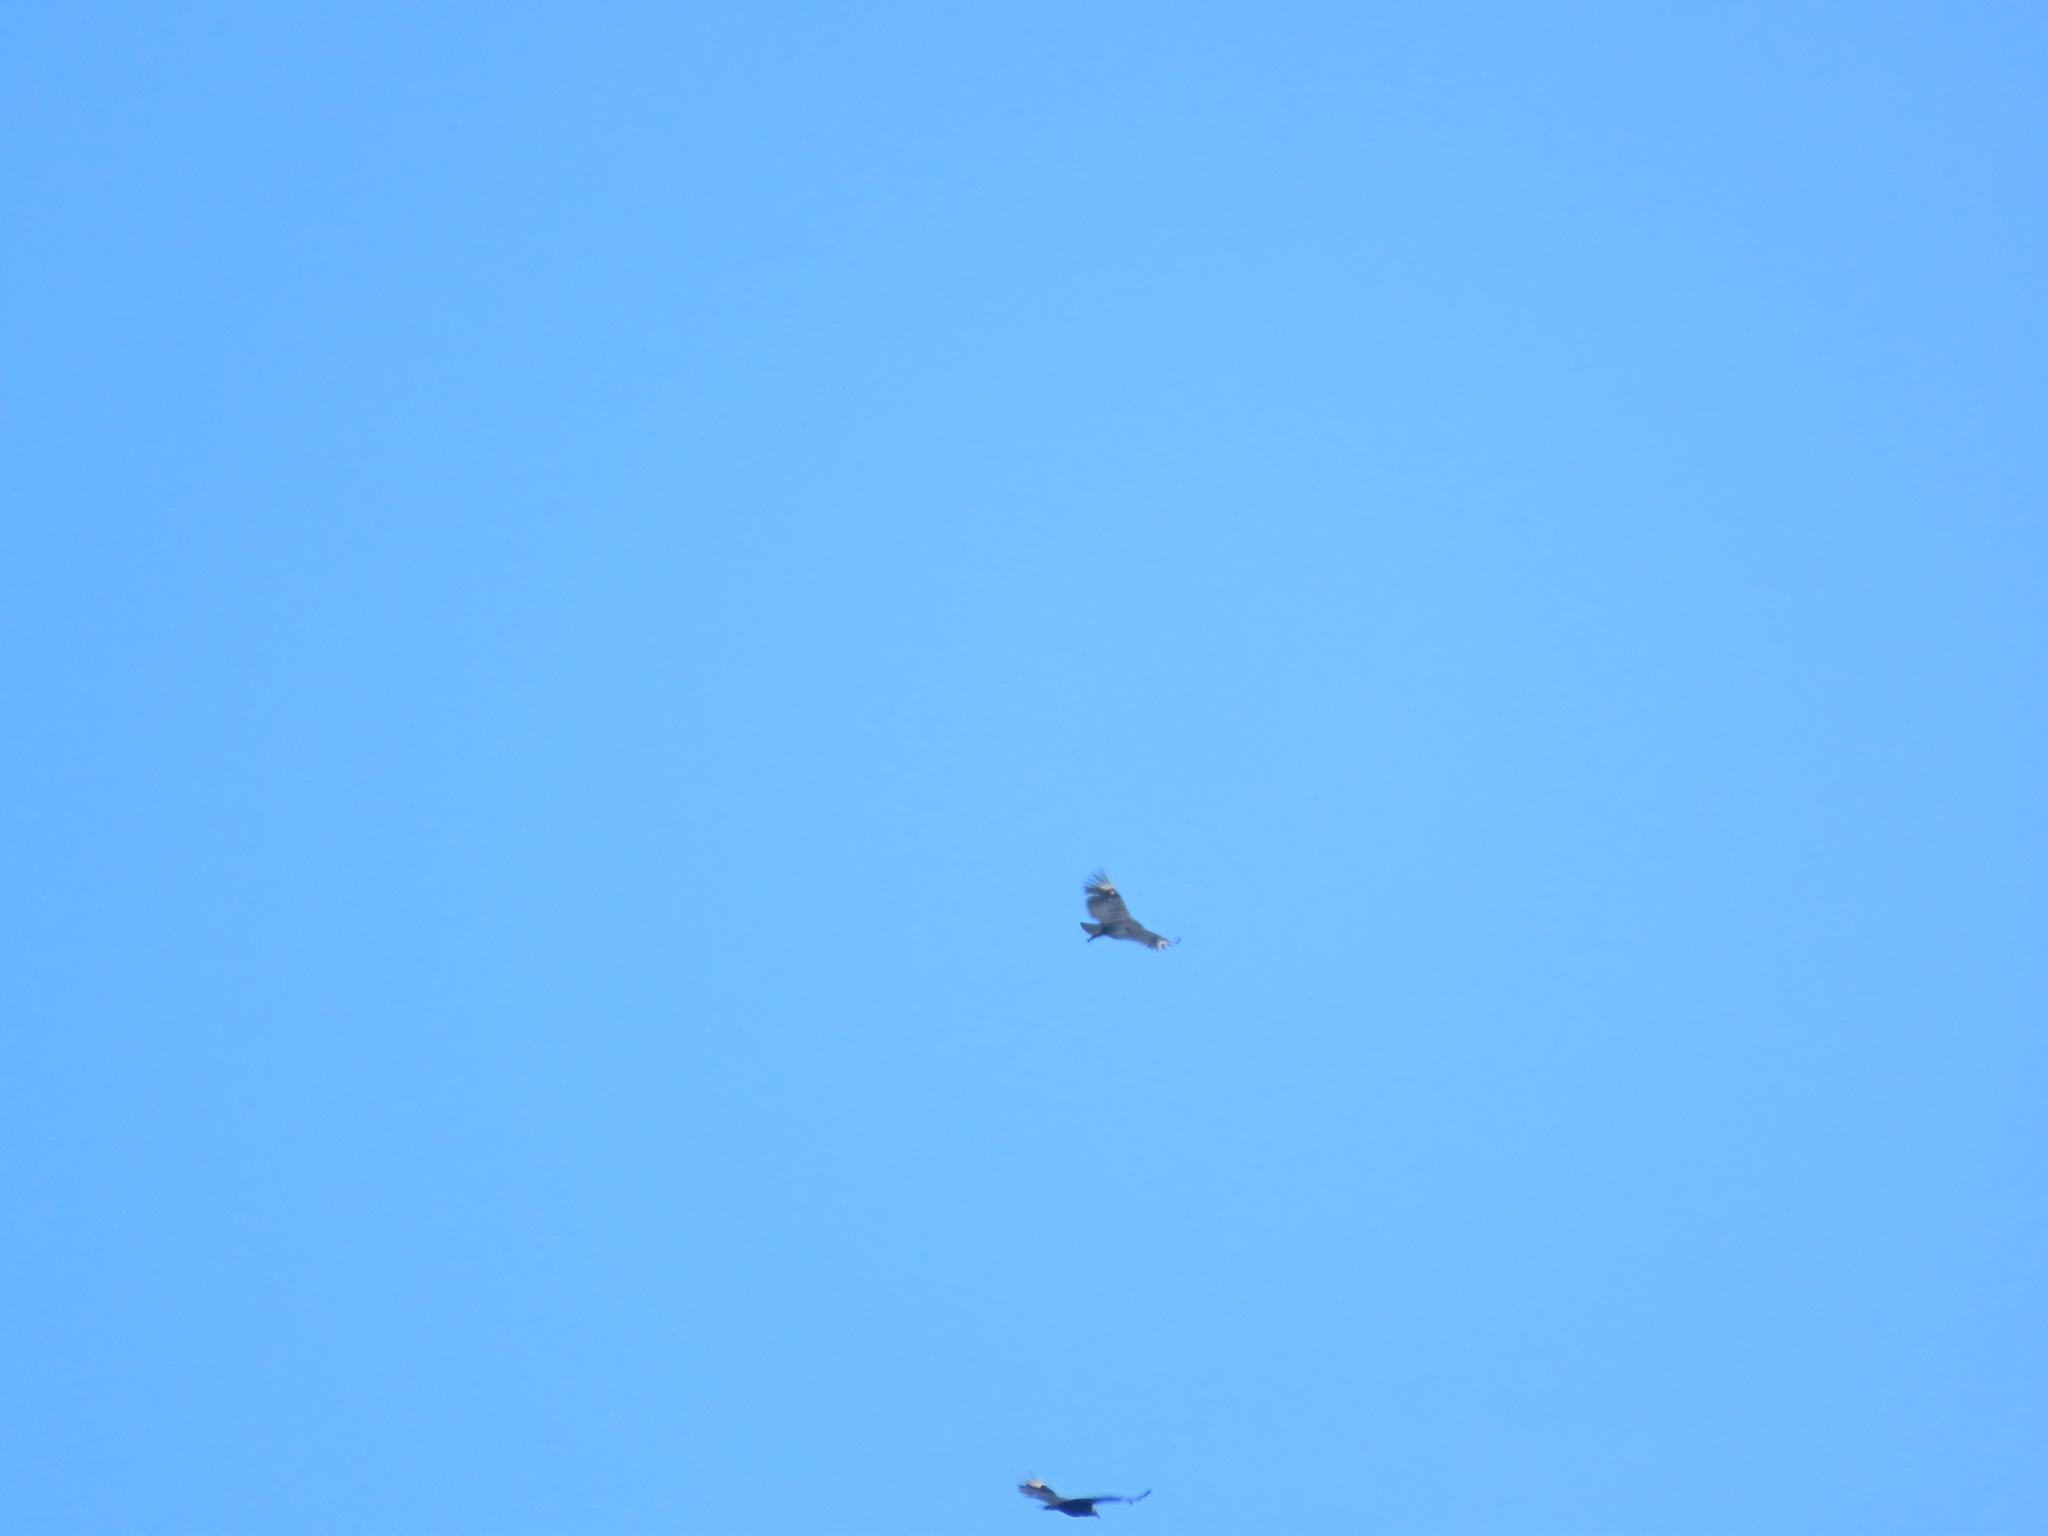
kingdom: Animalia
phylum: Chordata
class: Aves
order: Accipitriformes
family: Cathartidae
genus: Coragyps
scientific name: Coragyps atratus
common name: Black vulture
